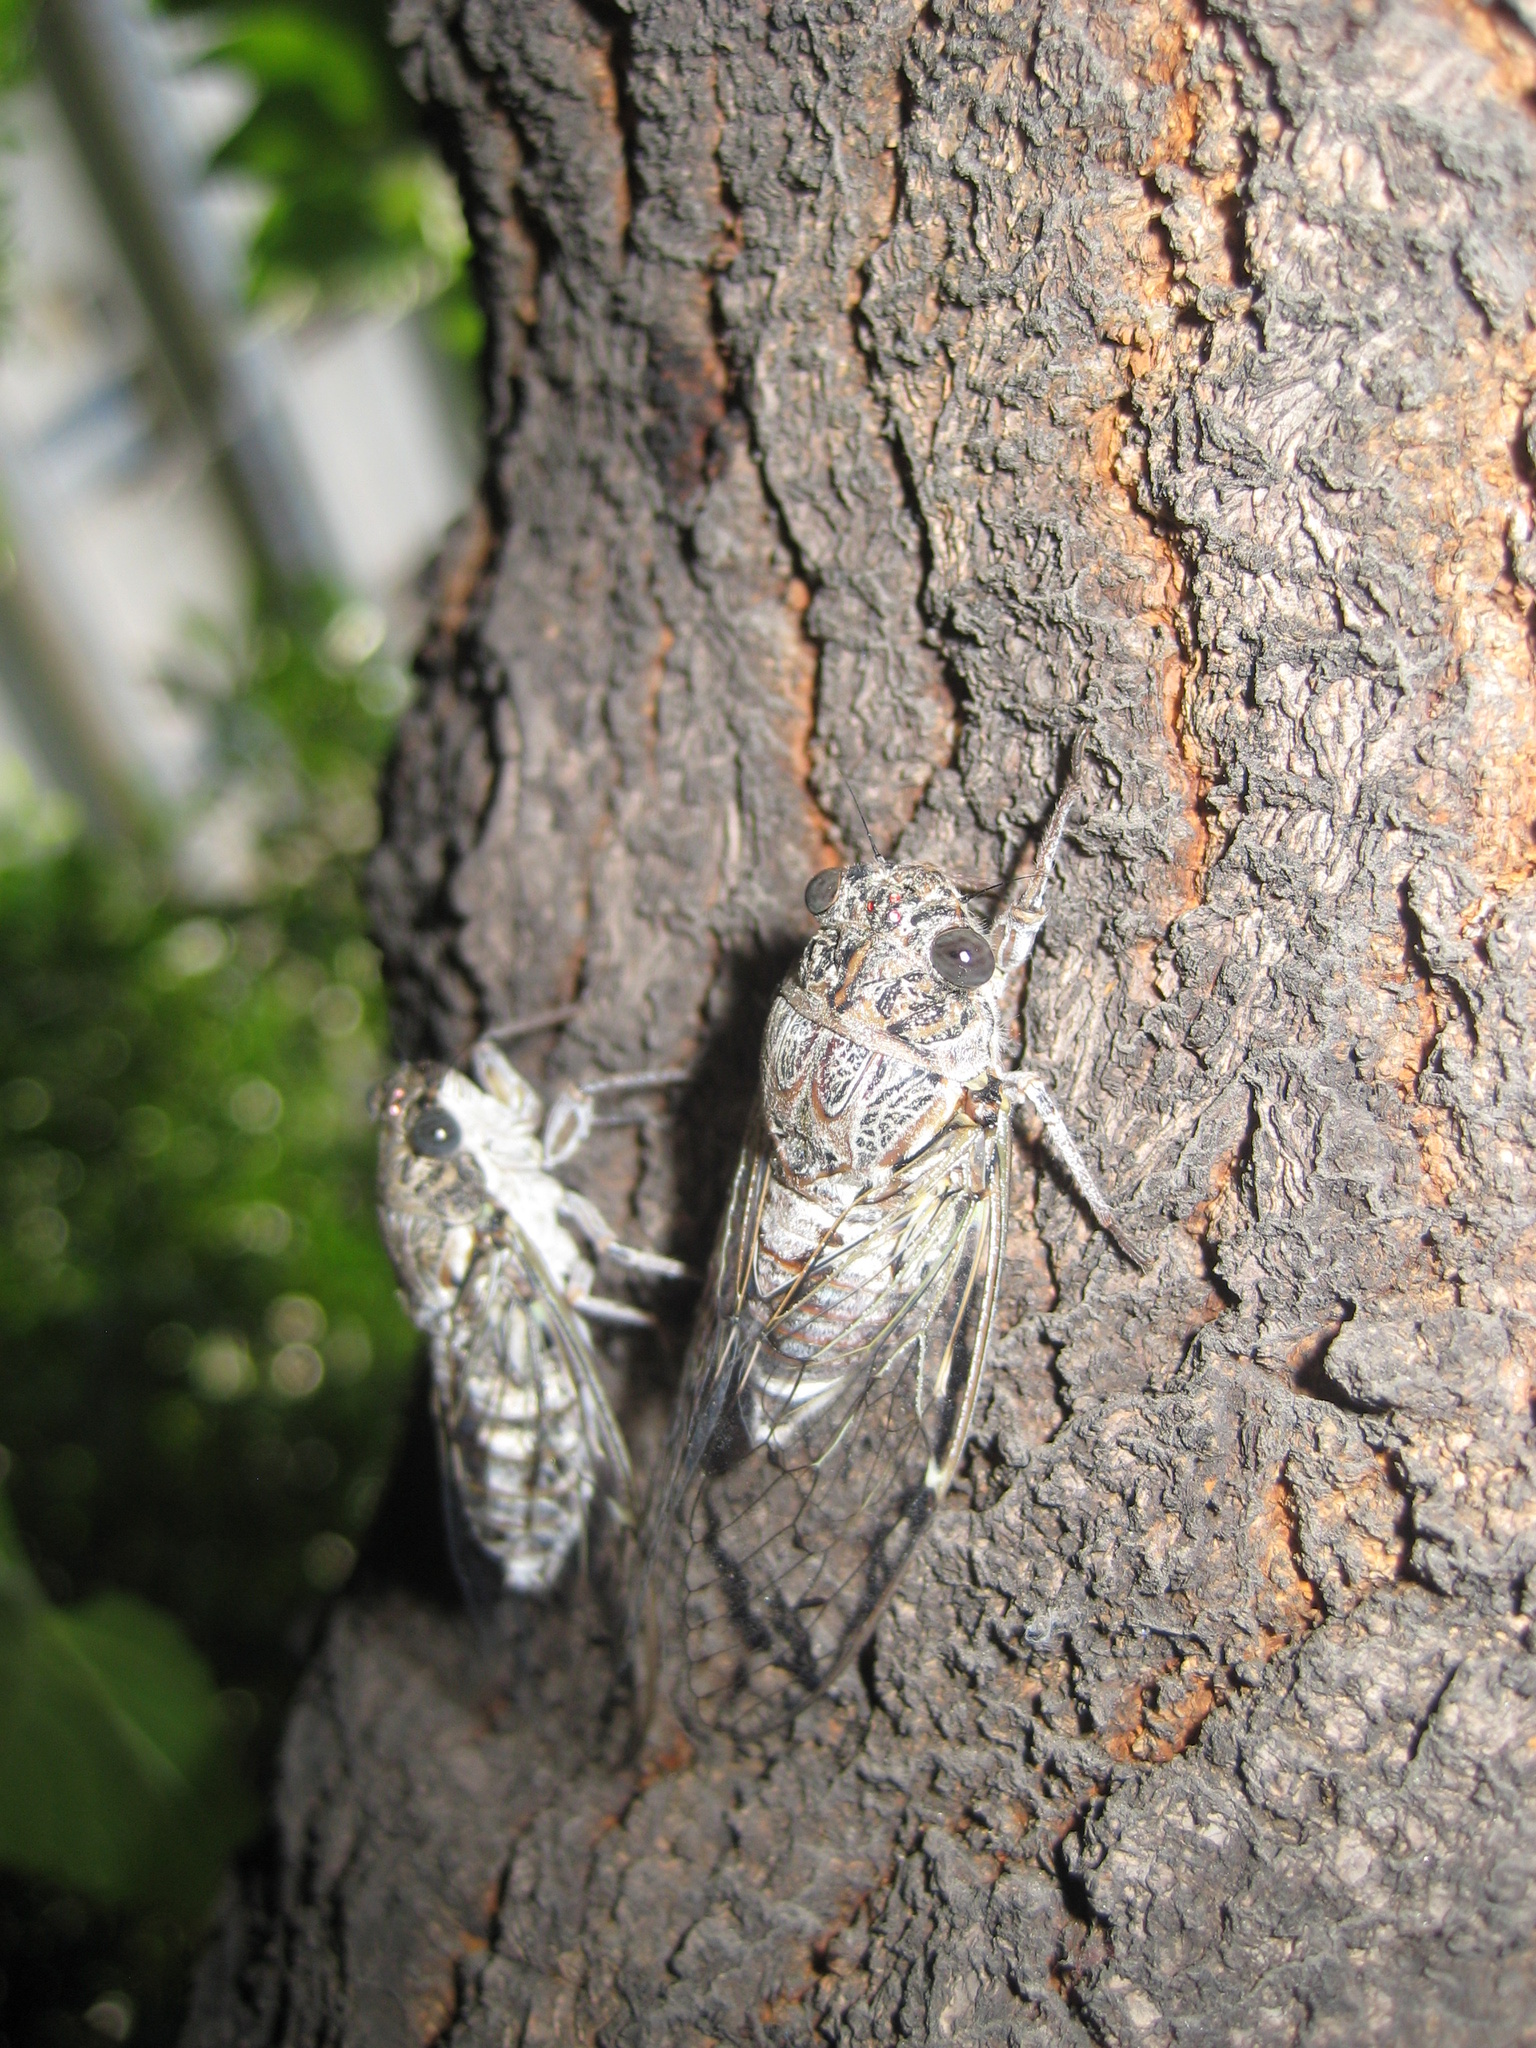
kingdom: Animalia
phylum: Arthropoda
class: Insecta
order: Hemiptera
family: Cicadidae
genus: Cicada
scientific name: Cicada orni
